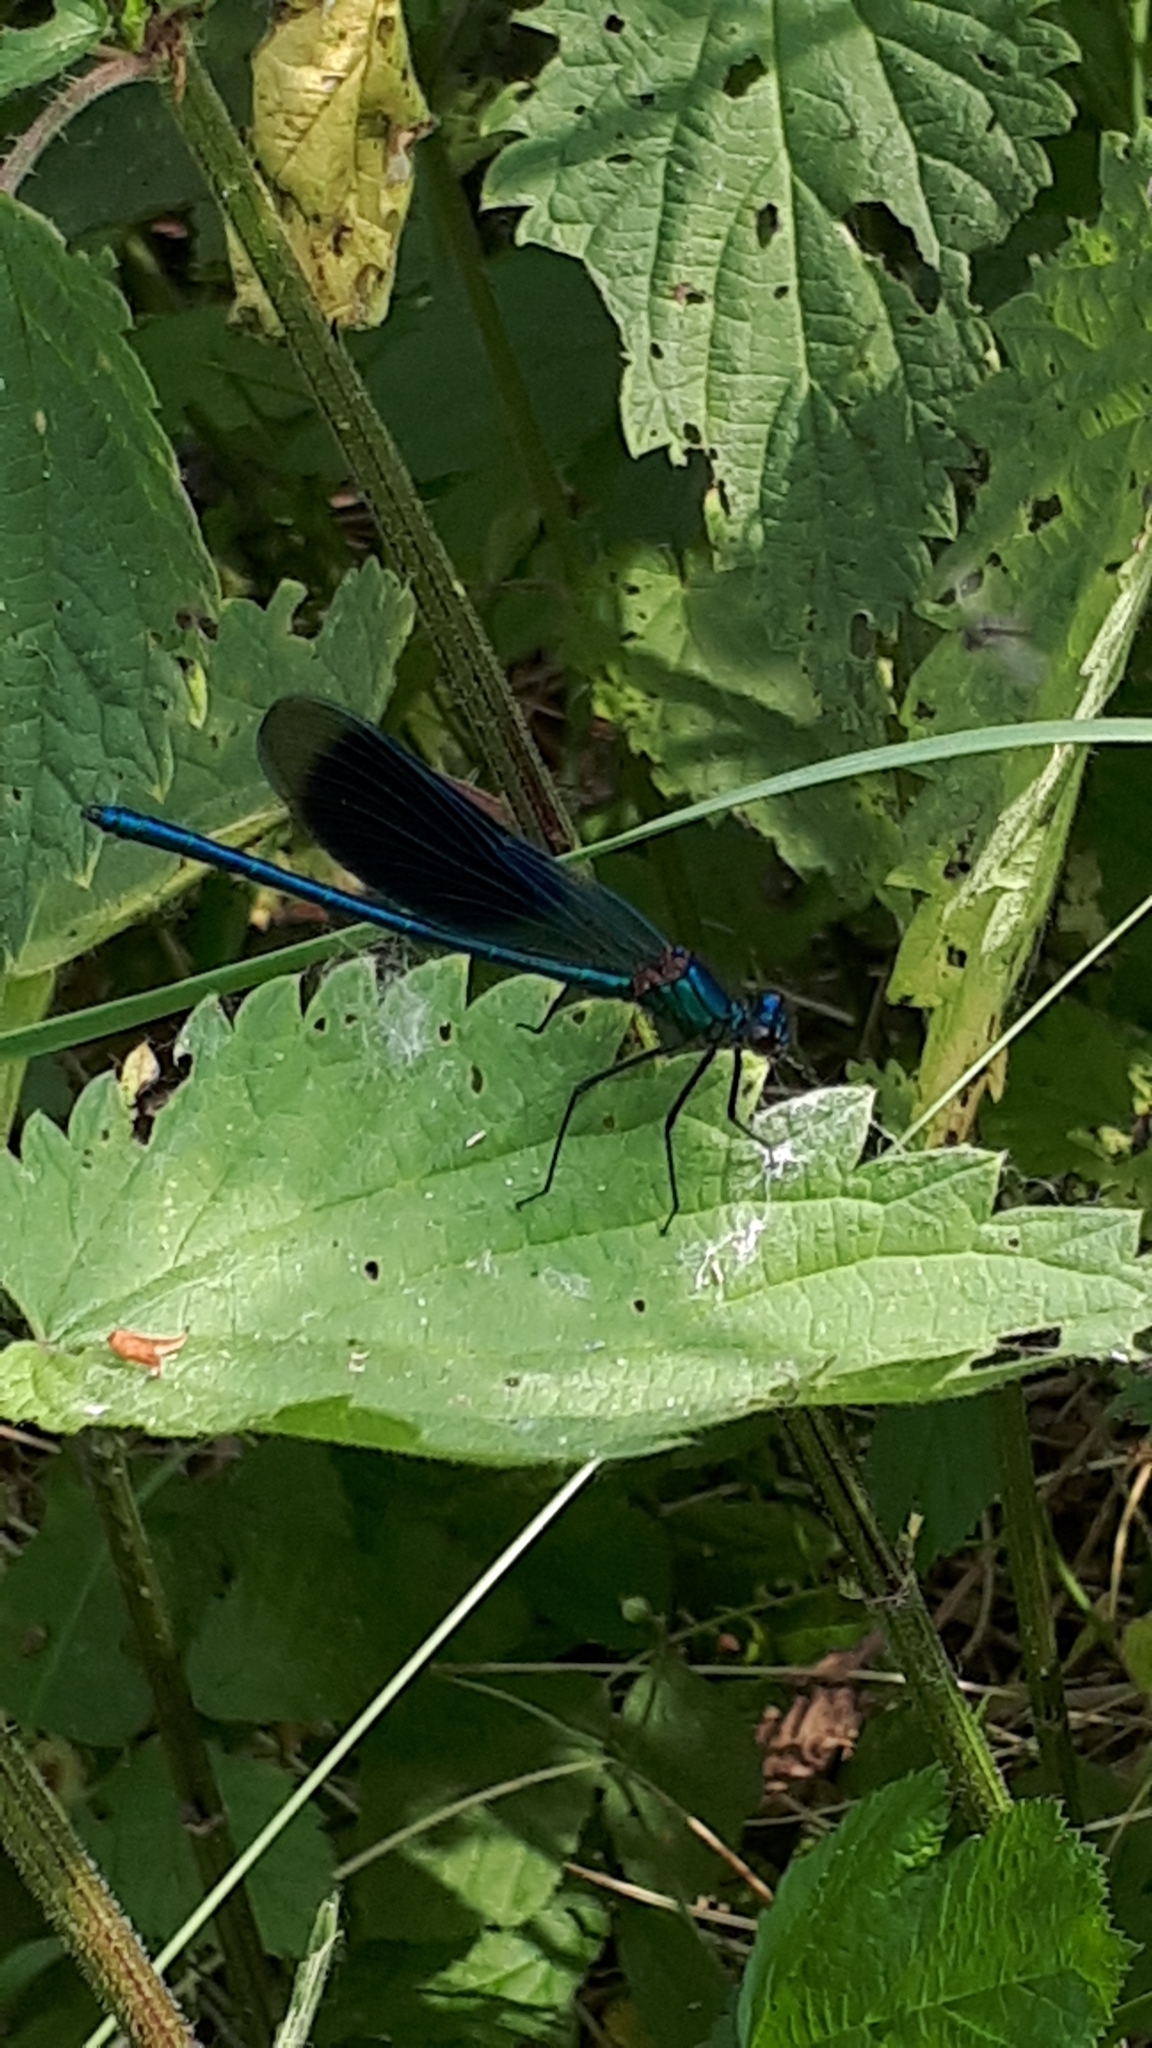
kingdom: Animalia
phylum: Arthropoda
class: Insecta
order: Odonata
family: Calopterygidae
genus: Calopteryx
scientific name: Calopteryx splendens
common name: Banded demoiselle
